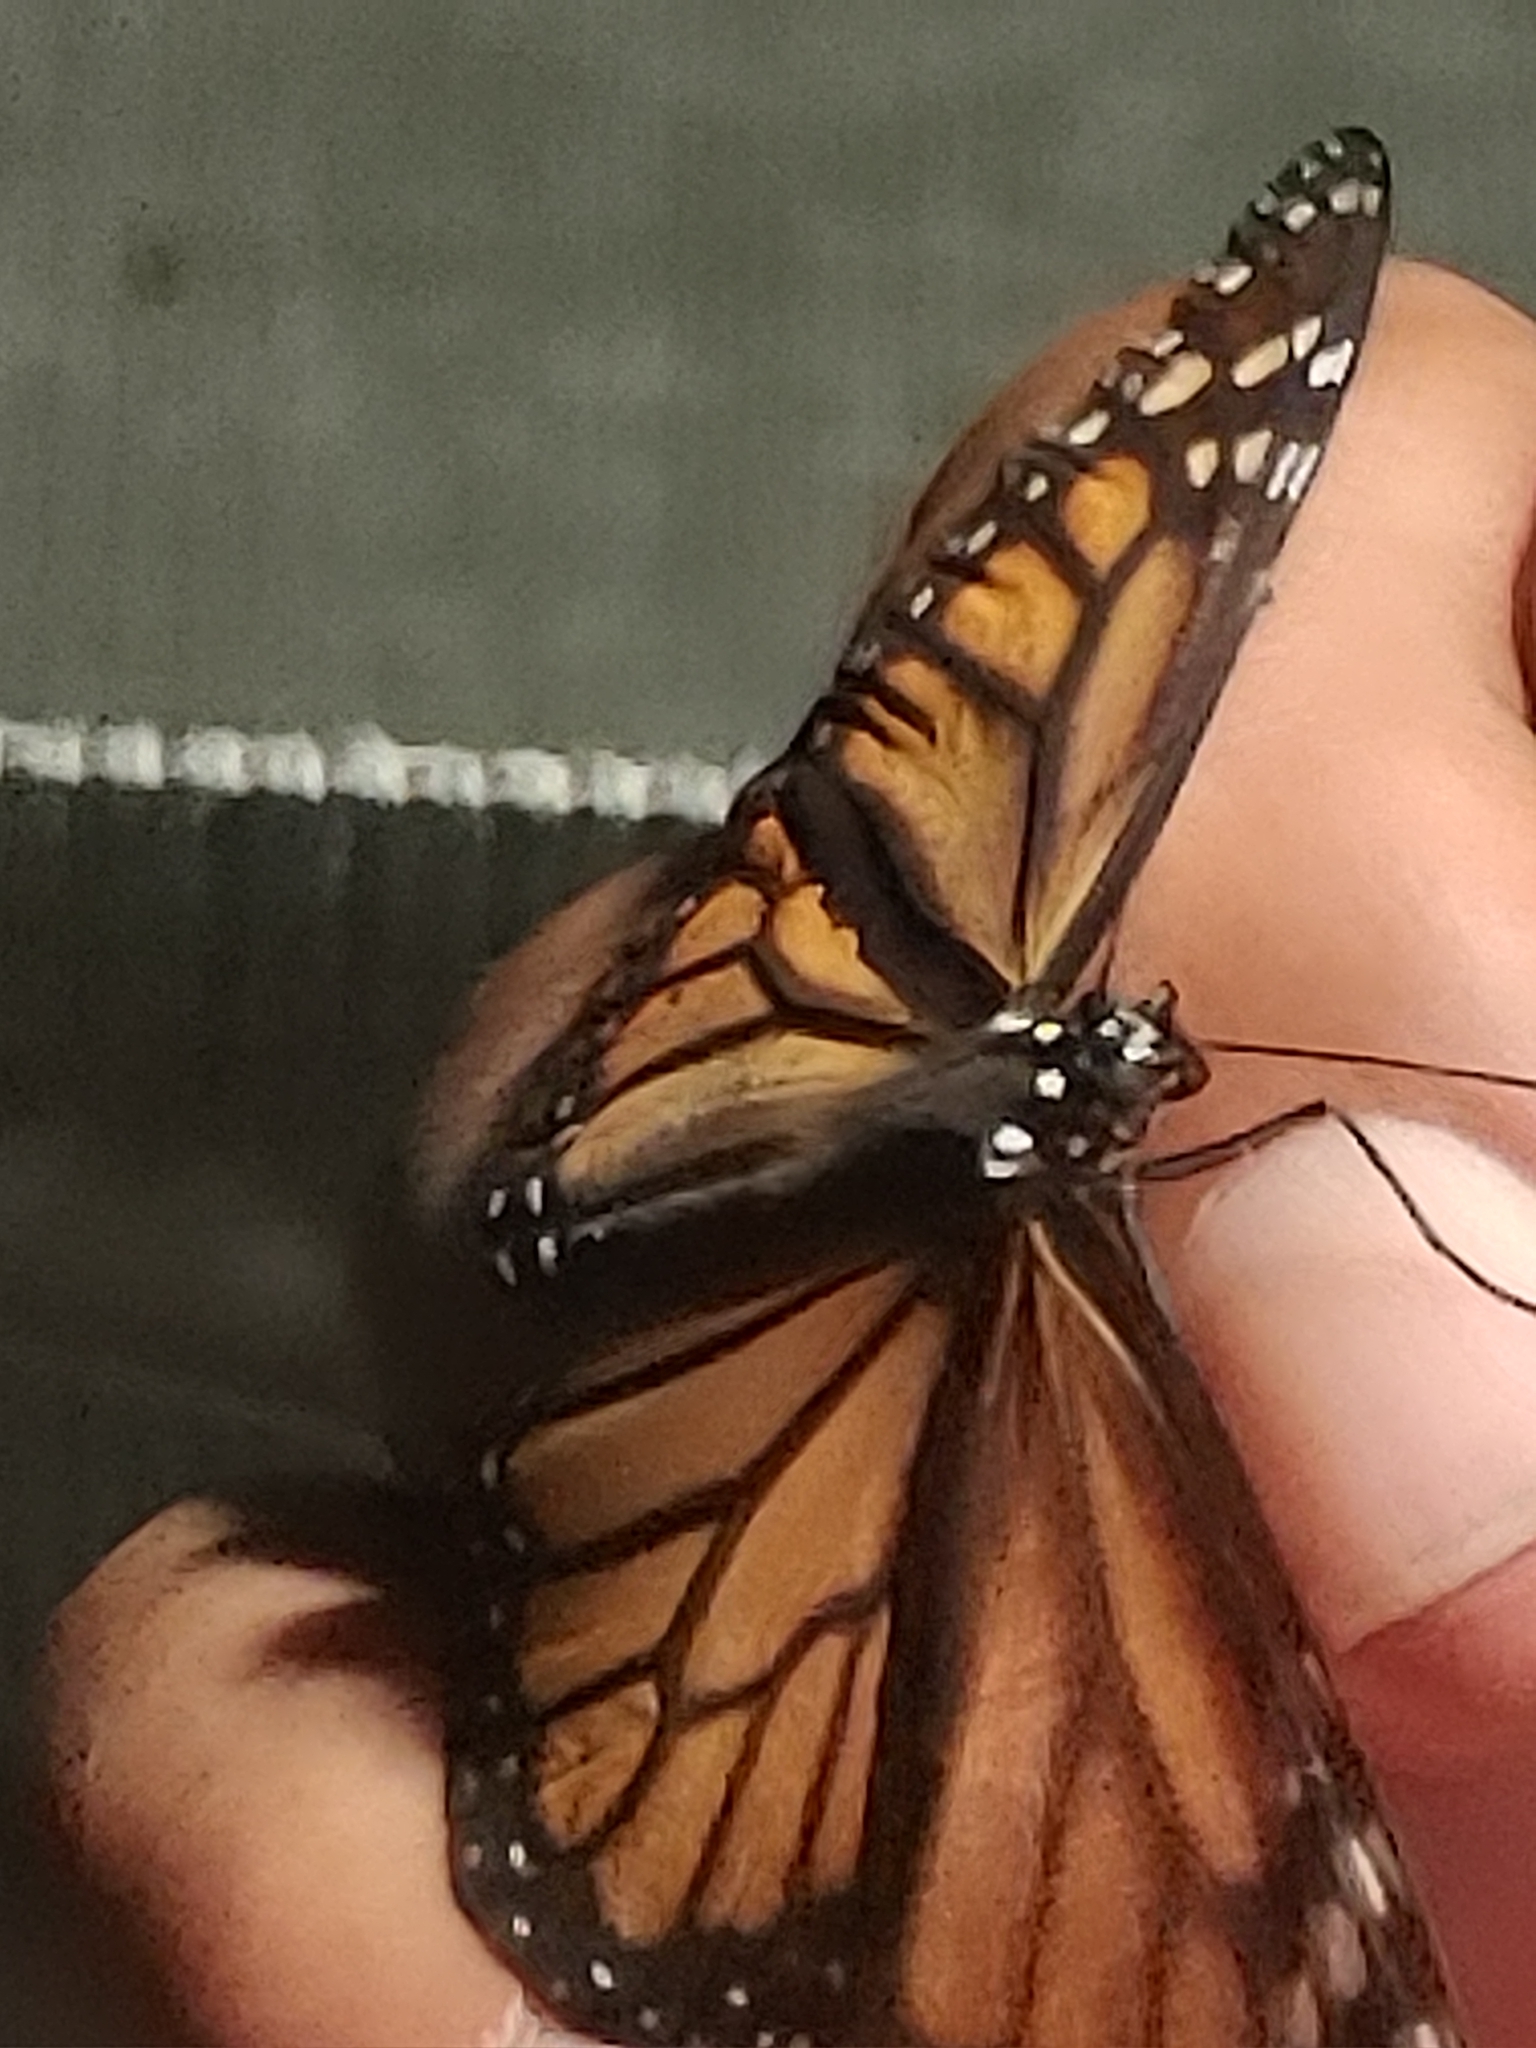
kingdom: Animalia
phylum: Arthropoda
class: Insecta
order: Lepidoptera
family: Nymphalidae
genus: Danaus
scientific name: Danaus plexippus
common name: Monarch
